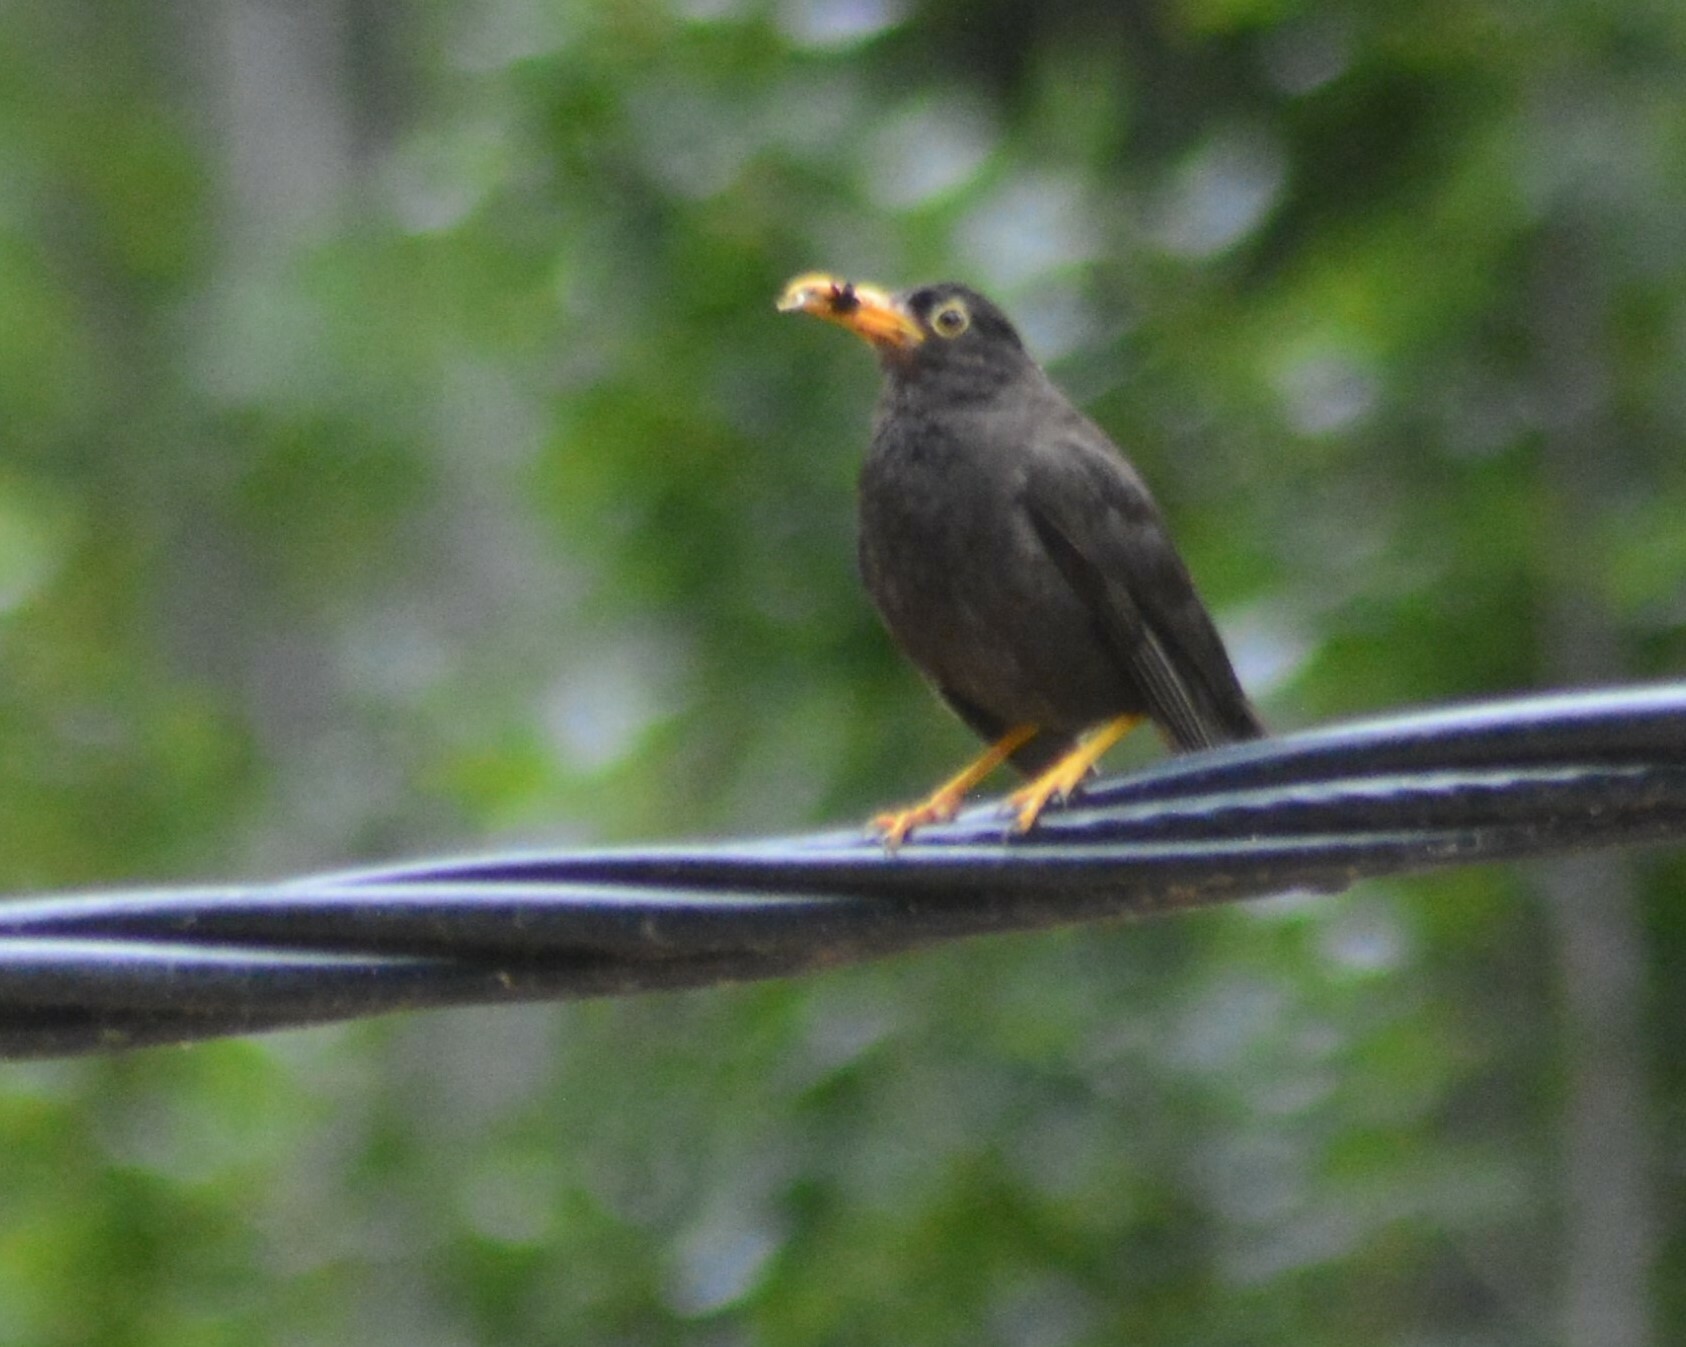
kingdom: Animalia
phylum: Chordata
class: Aves
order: Passeriformes
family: Turdidae
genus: Turdus
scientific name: Turdus chiguanco
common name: Chiguanco thrush
